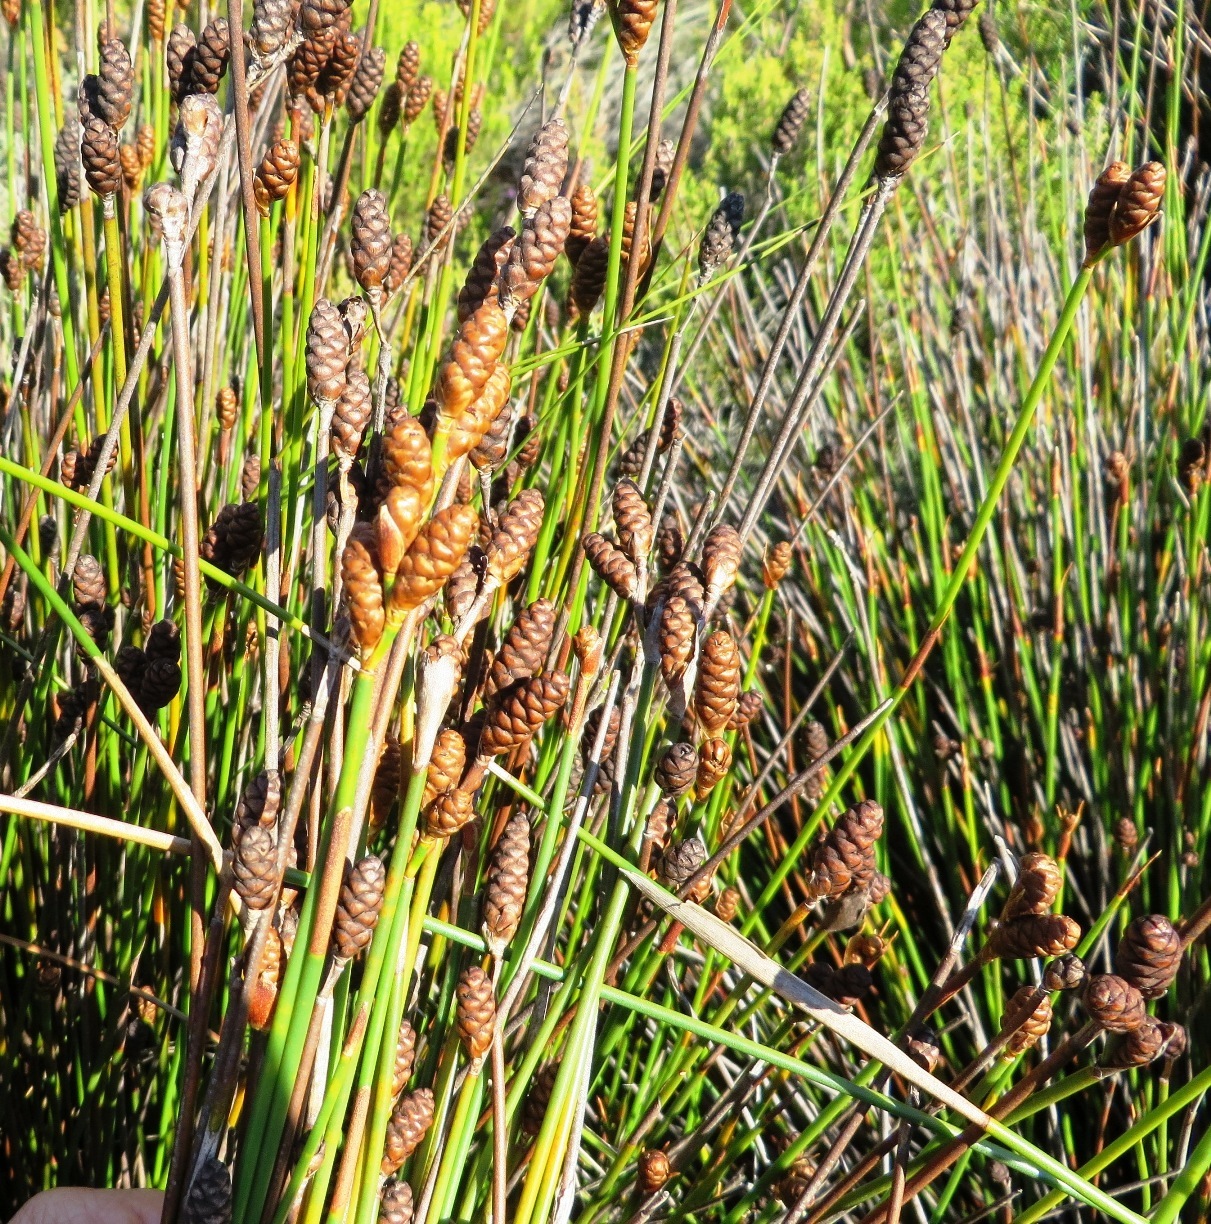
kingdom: Plantae
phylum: Tracheophyta
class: Liliopsida
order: Poales
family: Restionaceae
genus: Nevillea
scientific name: Nevillea obtusissimus
